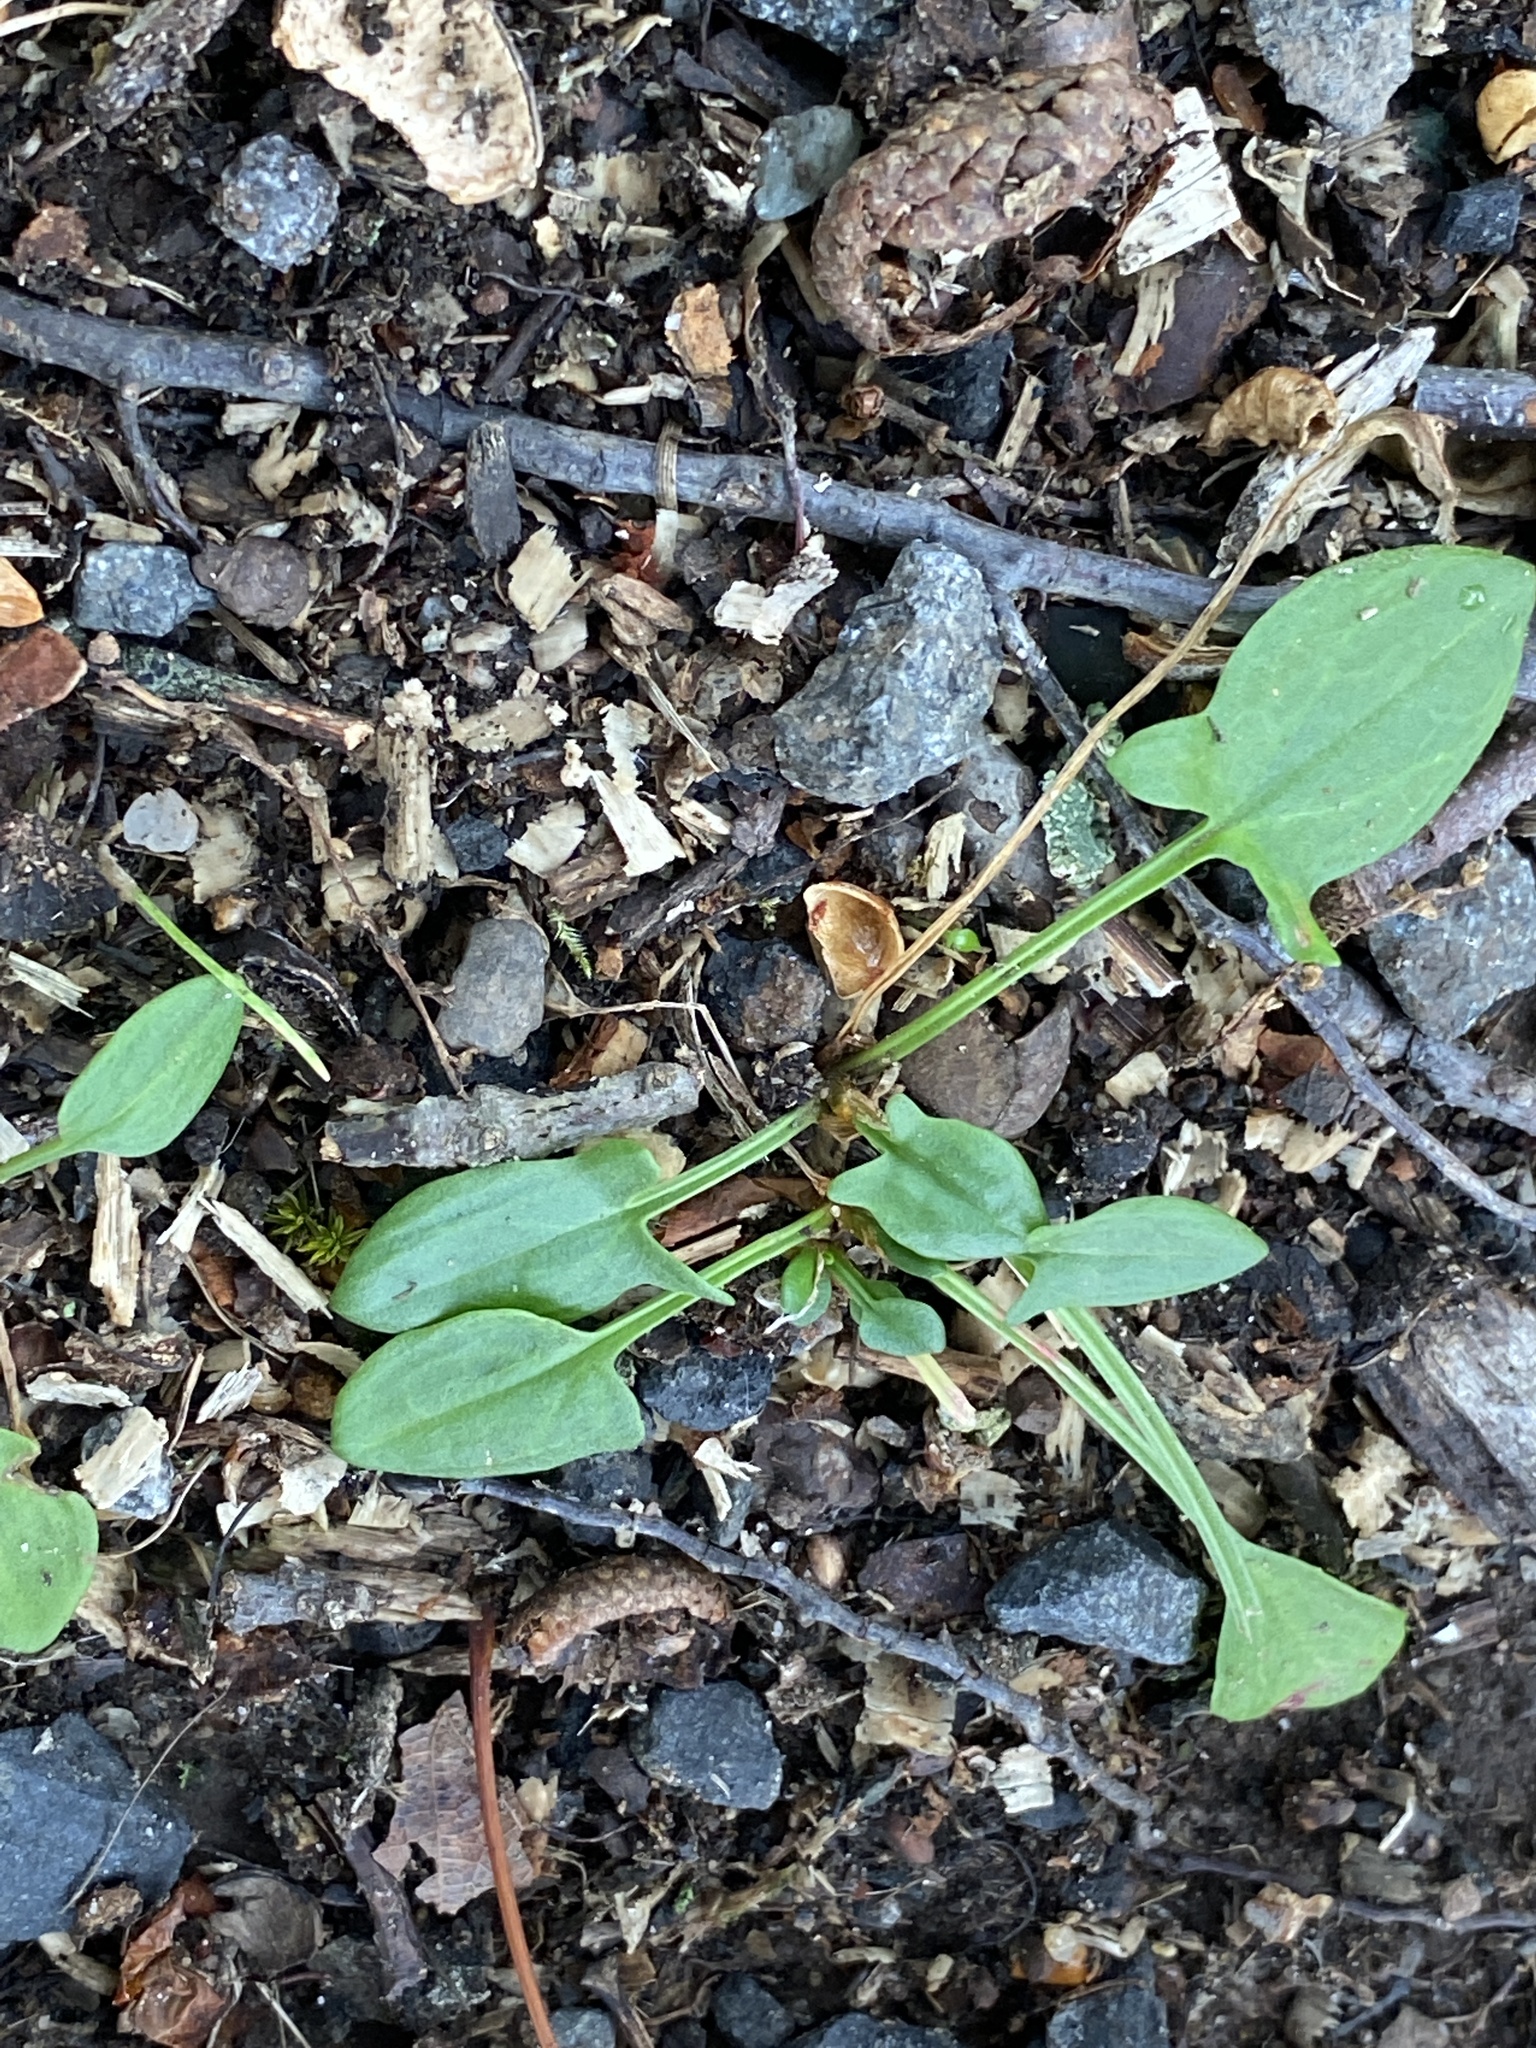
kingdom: Plantae
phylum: Tracheophyta
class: Magnoliopsida
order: Caryophyllales
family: Polygonaceae
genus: Rumex
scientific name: Rumex acetosella
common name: Common sheep sorrel
